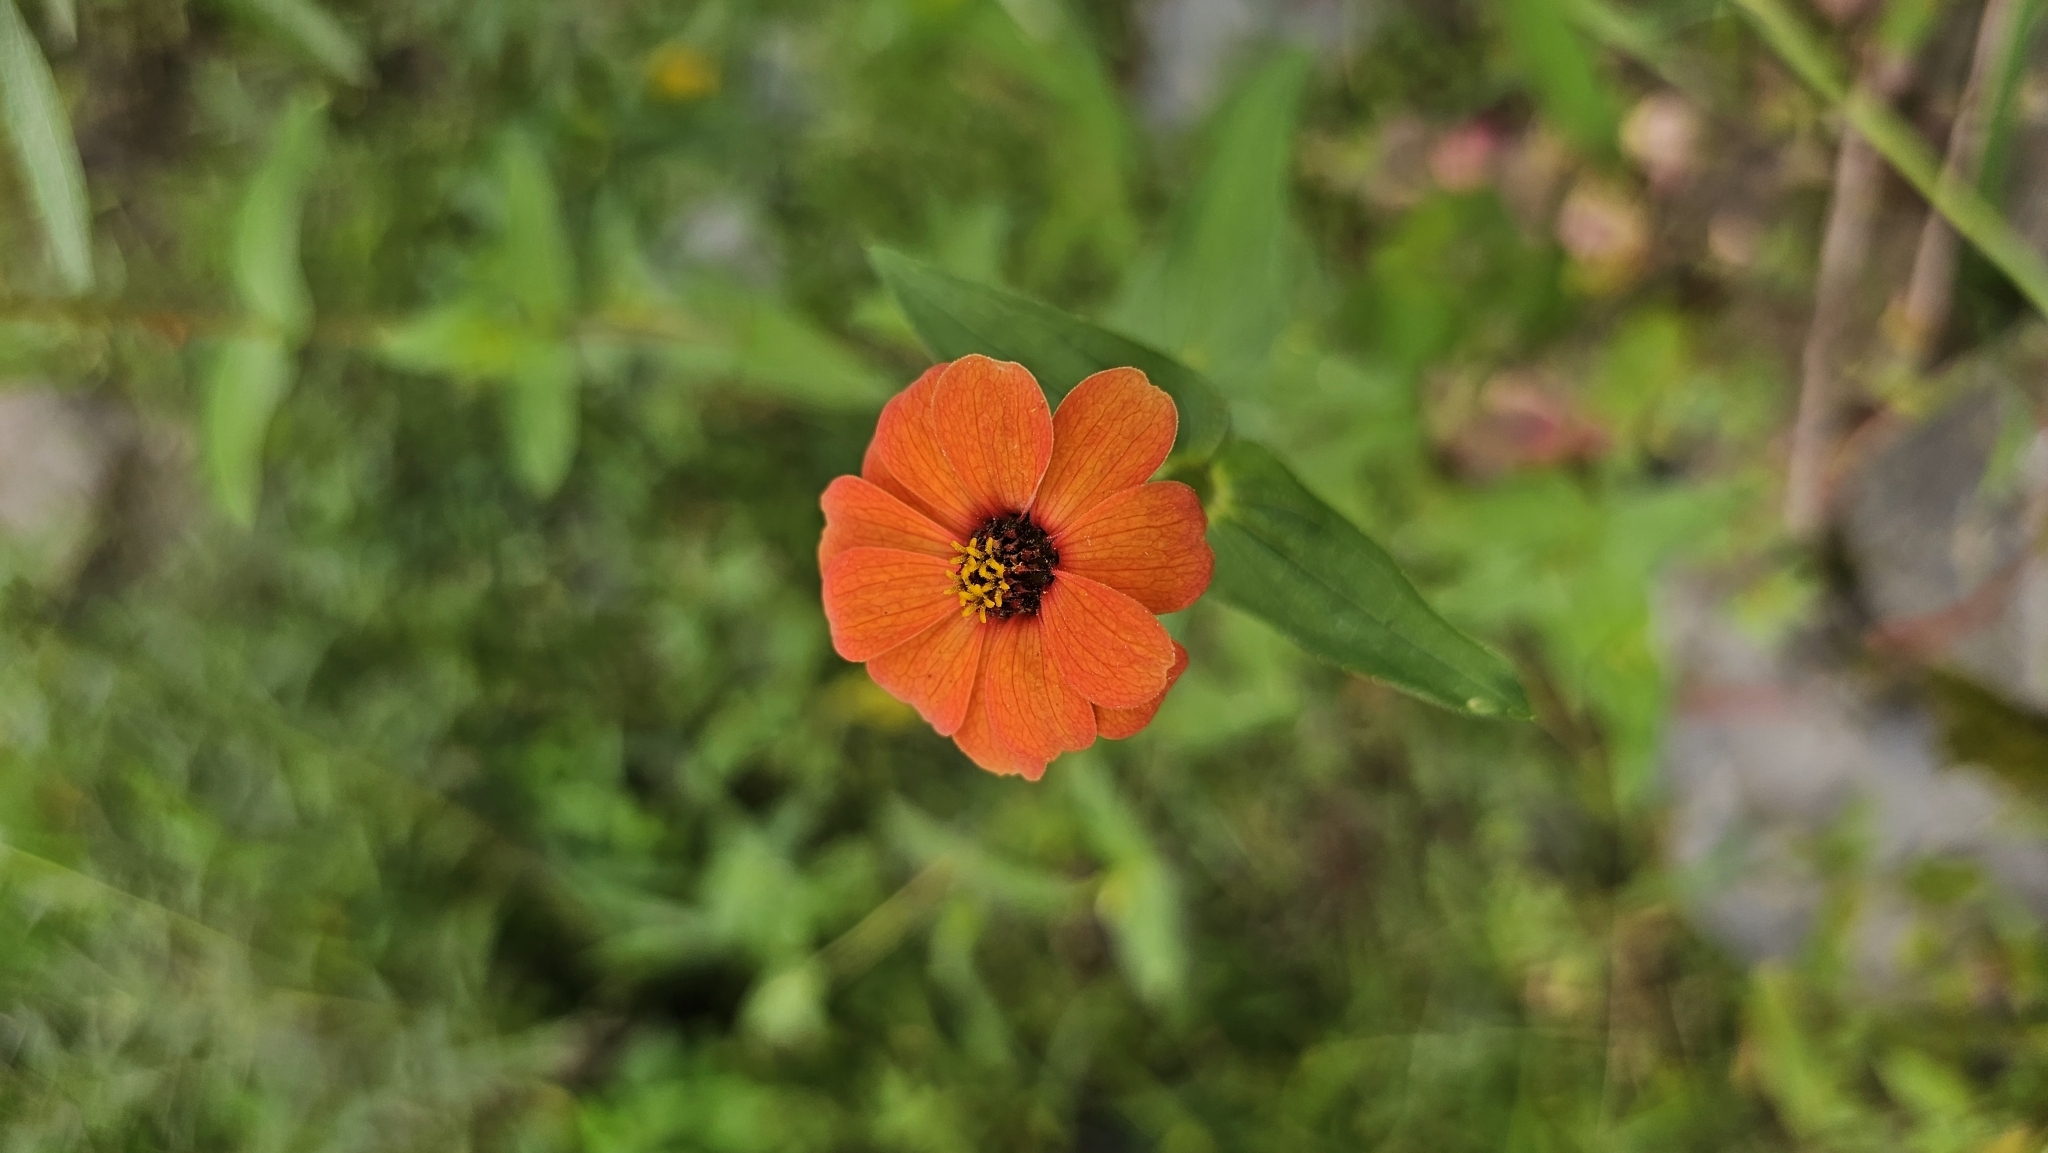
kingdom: Plantae
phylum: Tracheophyta
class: Magnoliopsida
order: Asterales
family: Asteraceae
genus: Zinnia
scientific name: Zinnia peruviana
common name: Peruvian zinnia
